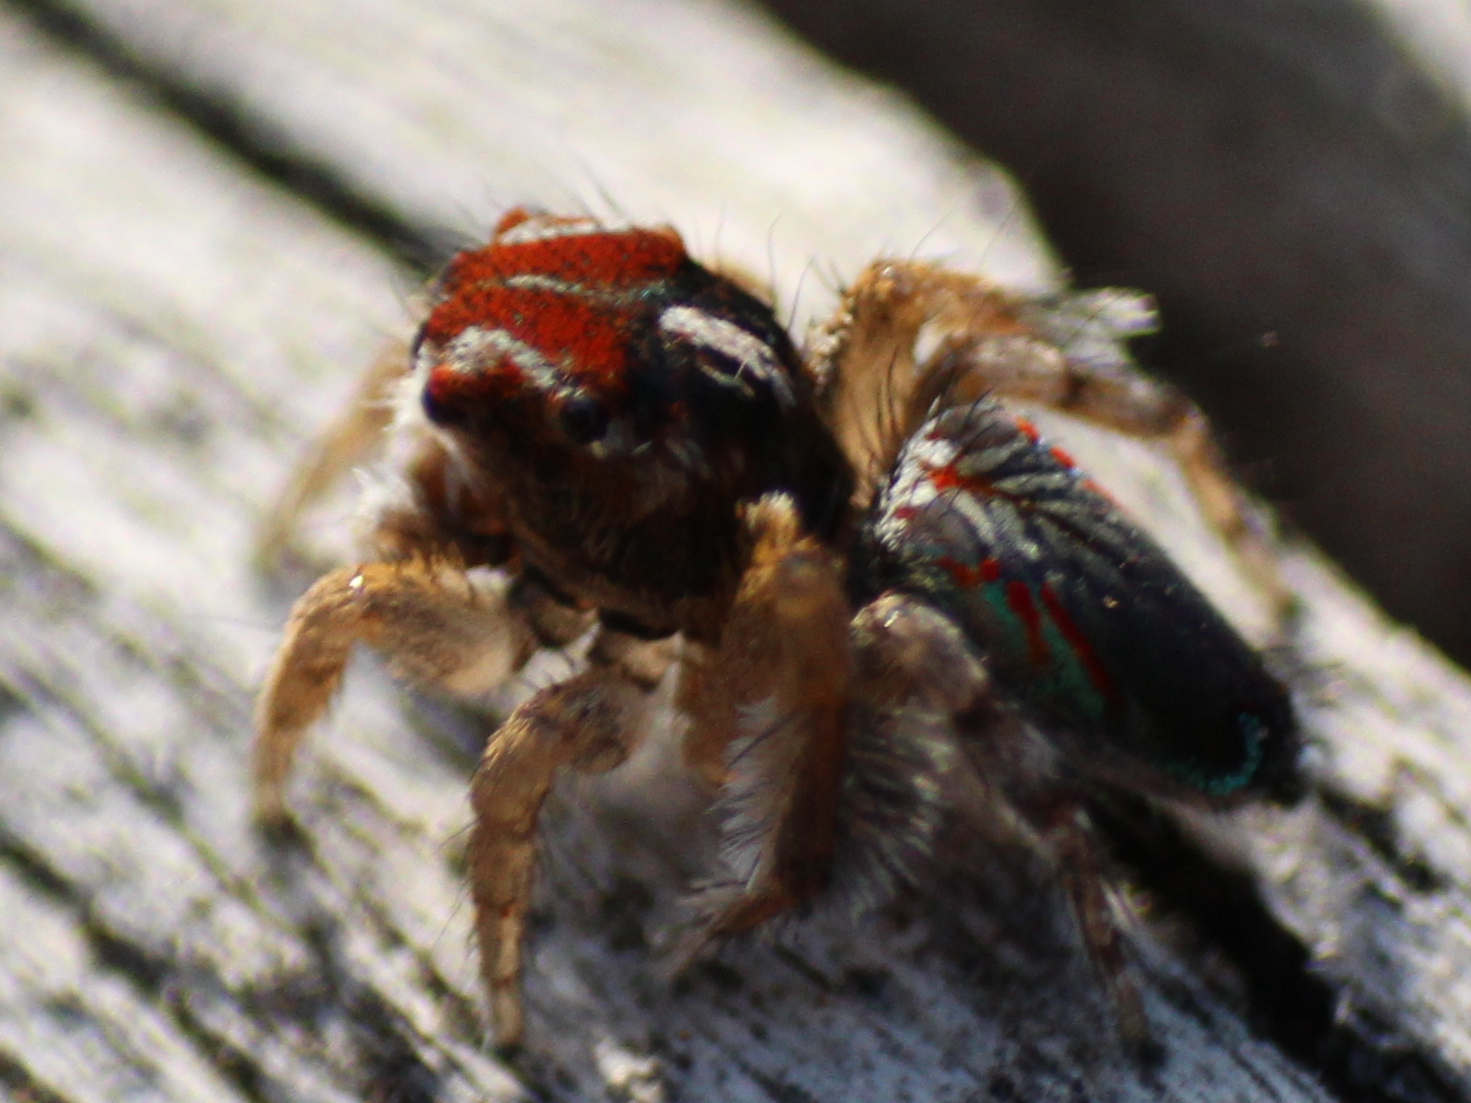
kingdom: Animalia
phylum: Arthropoda
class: Arachnida
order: Araneae
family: Salticidae
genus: Maratus
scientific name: Maratus linnaei
